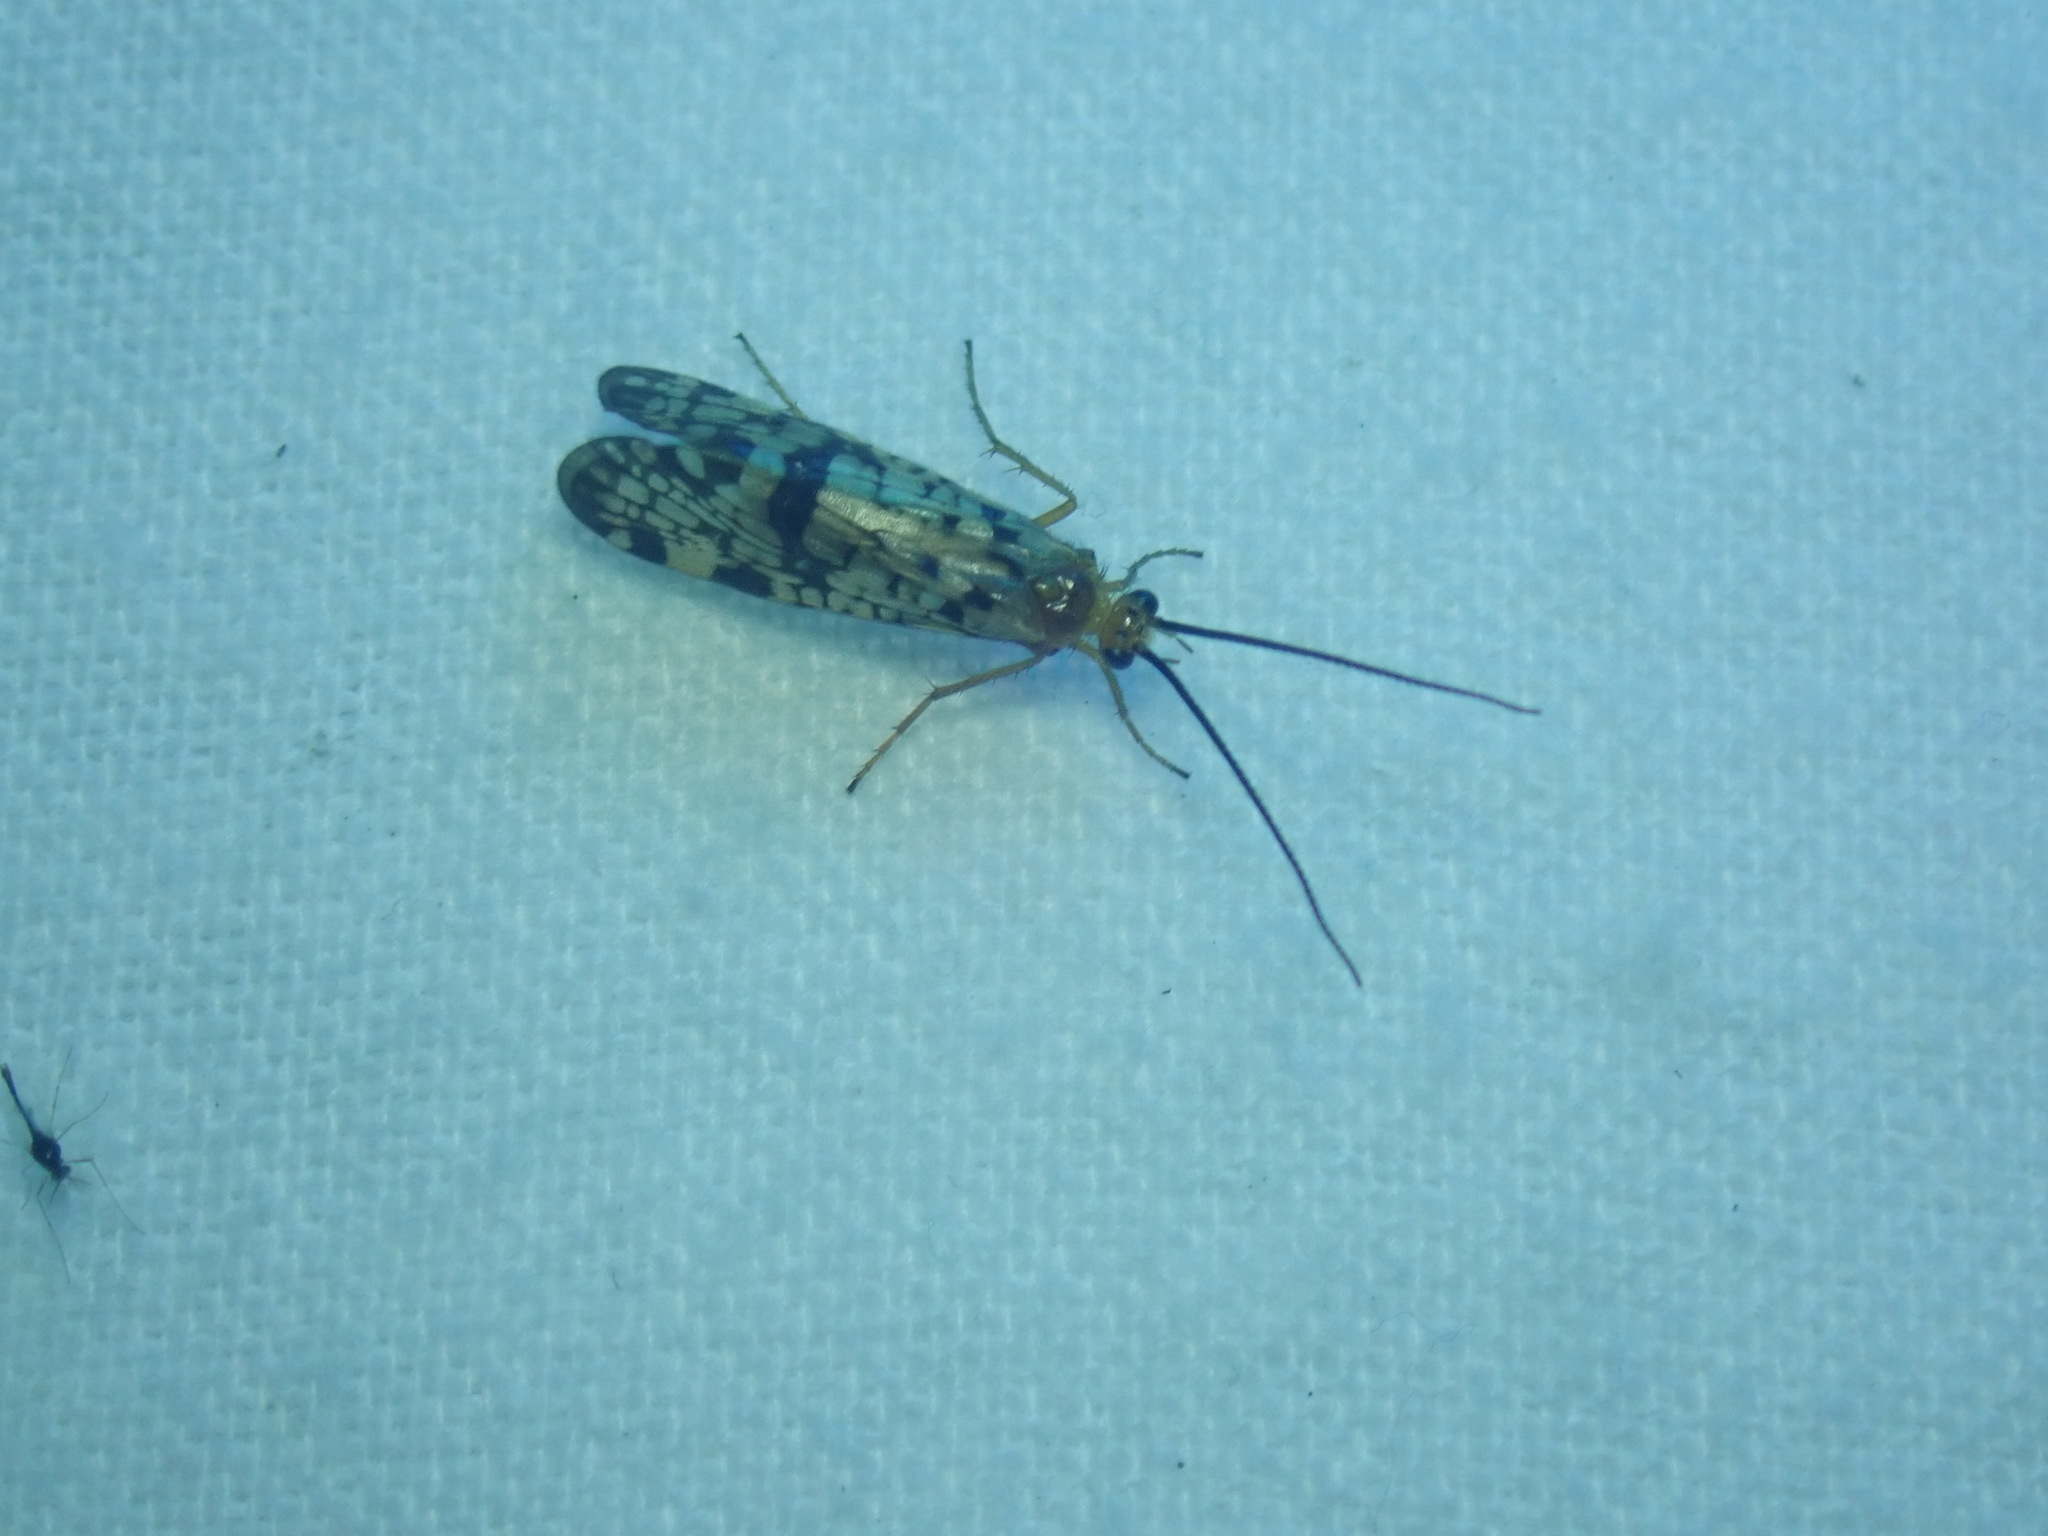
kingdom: Animalia
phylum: Arthropoda
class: Insecta
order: Trichoptera
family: Phryganeidae
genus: Banksiola
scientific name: Banksiola dossuaria
